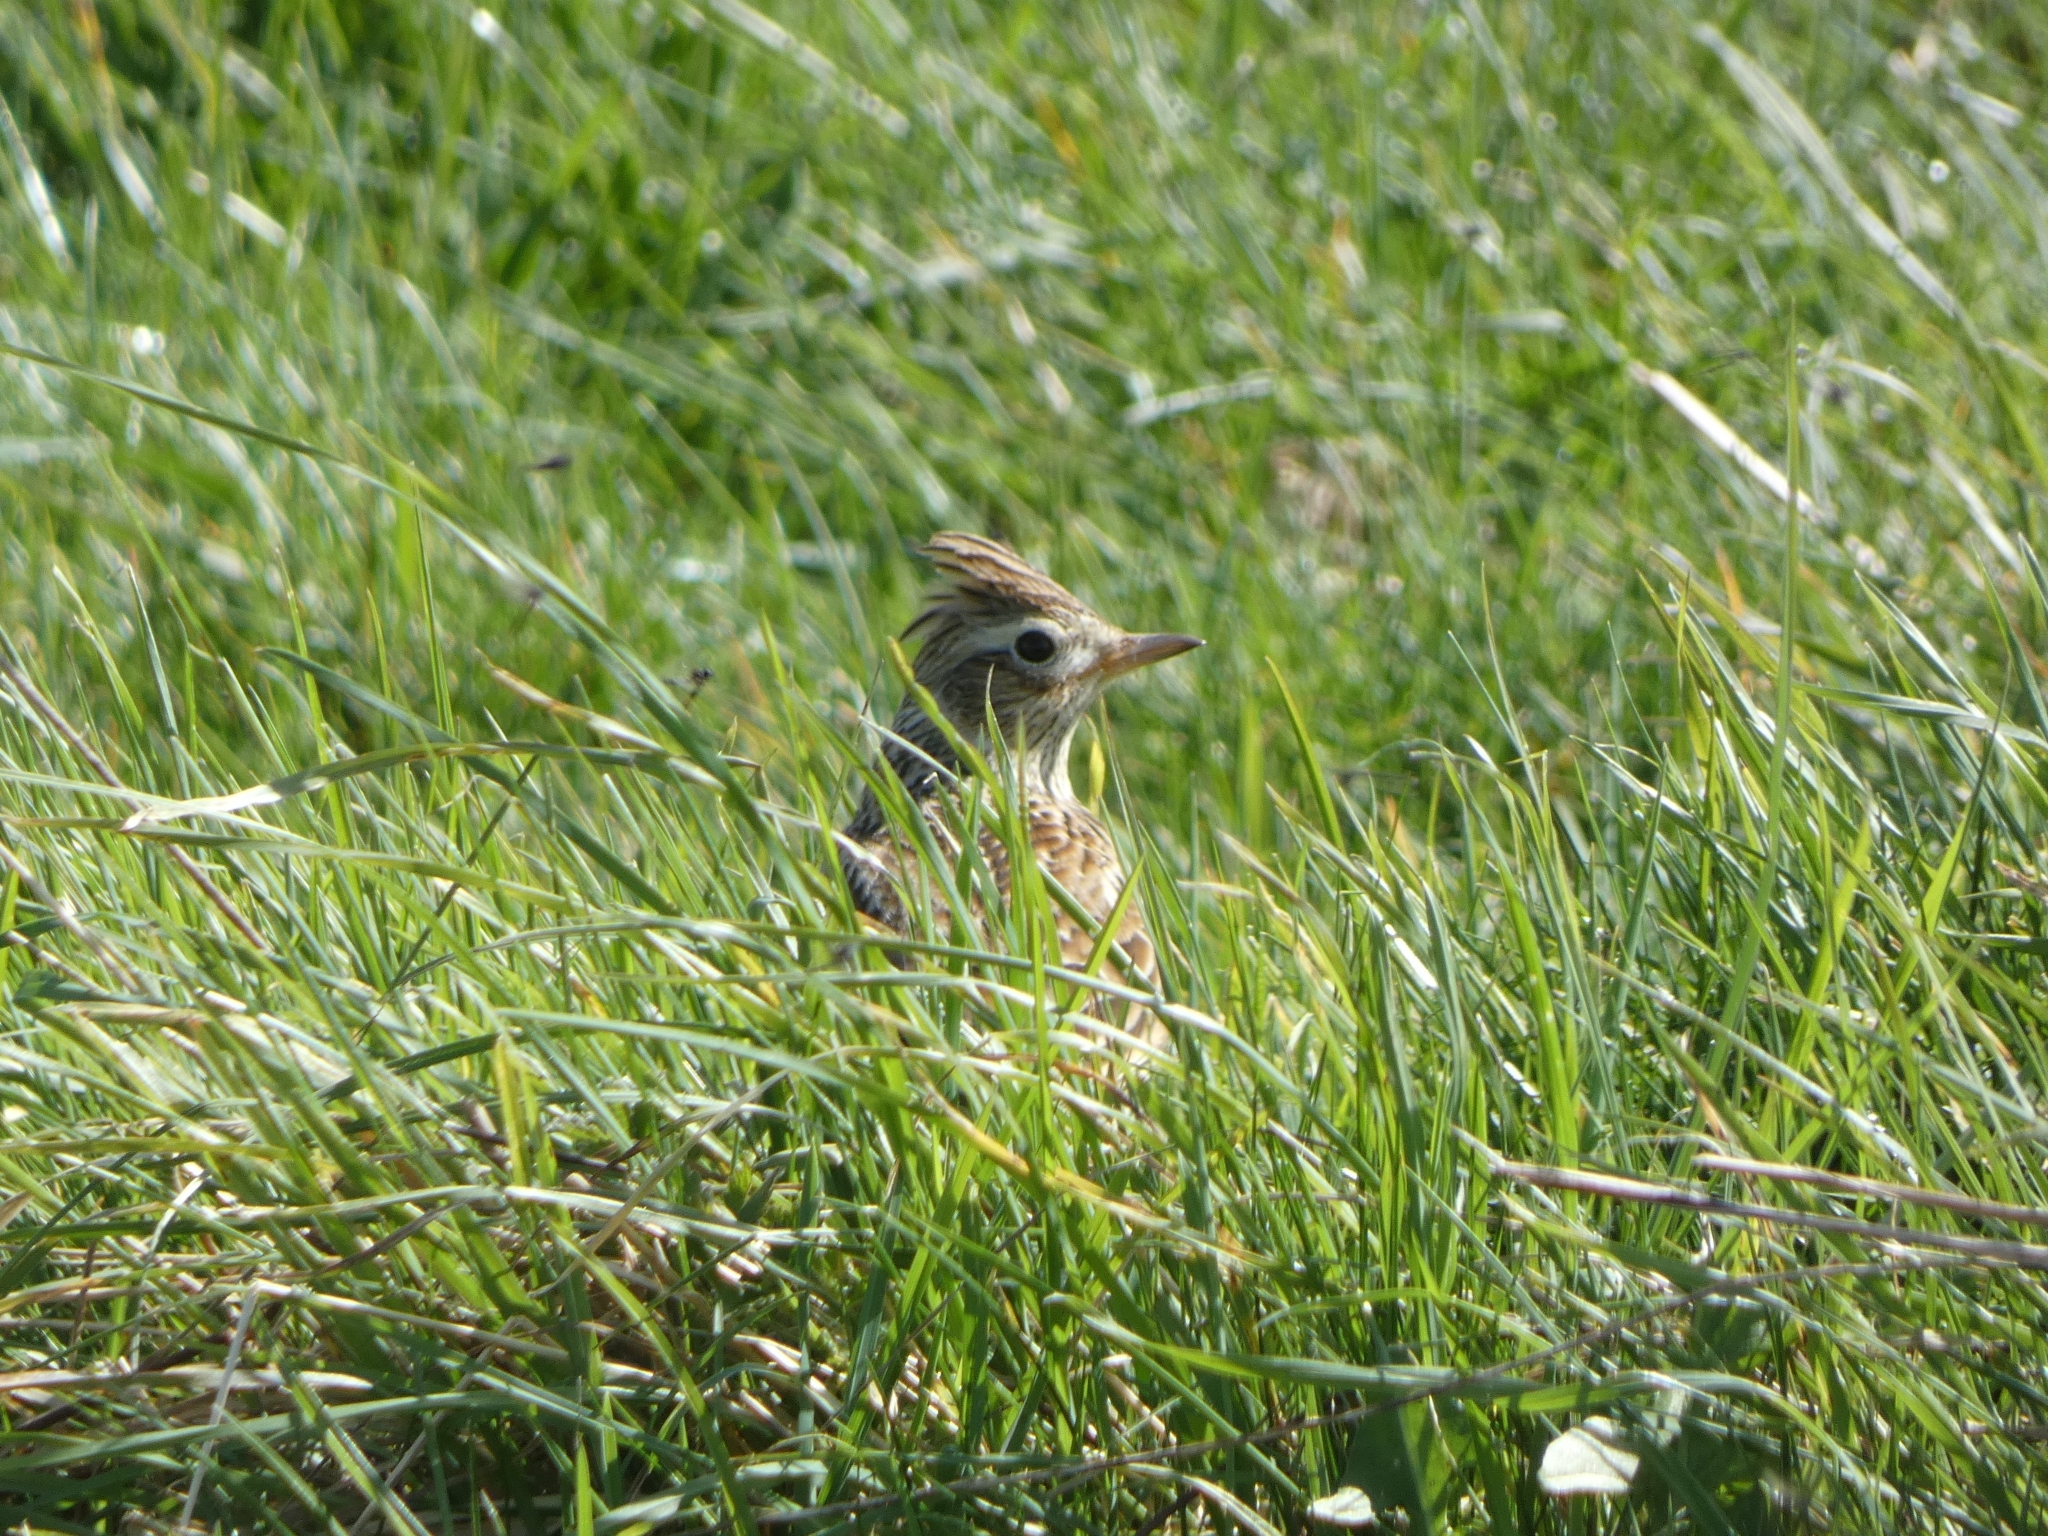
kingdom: Animalia
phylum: Chordata
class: Aves
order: Passeriformes
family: Alaudidae
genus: Alauda
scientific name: Alauda arvensis
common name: Eurasian skylark
